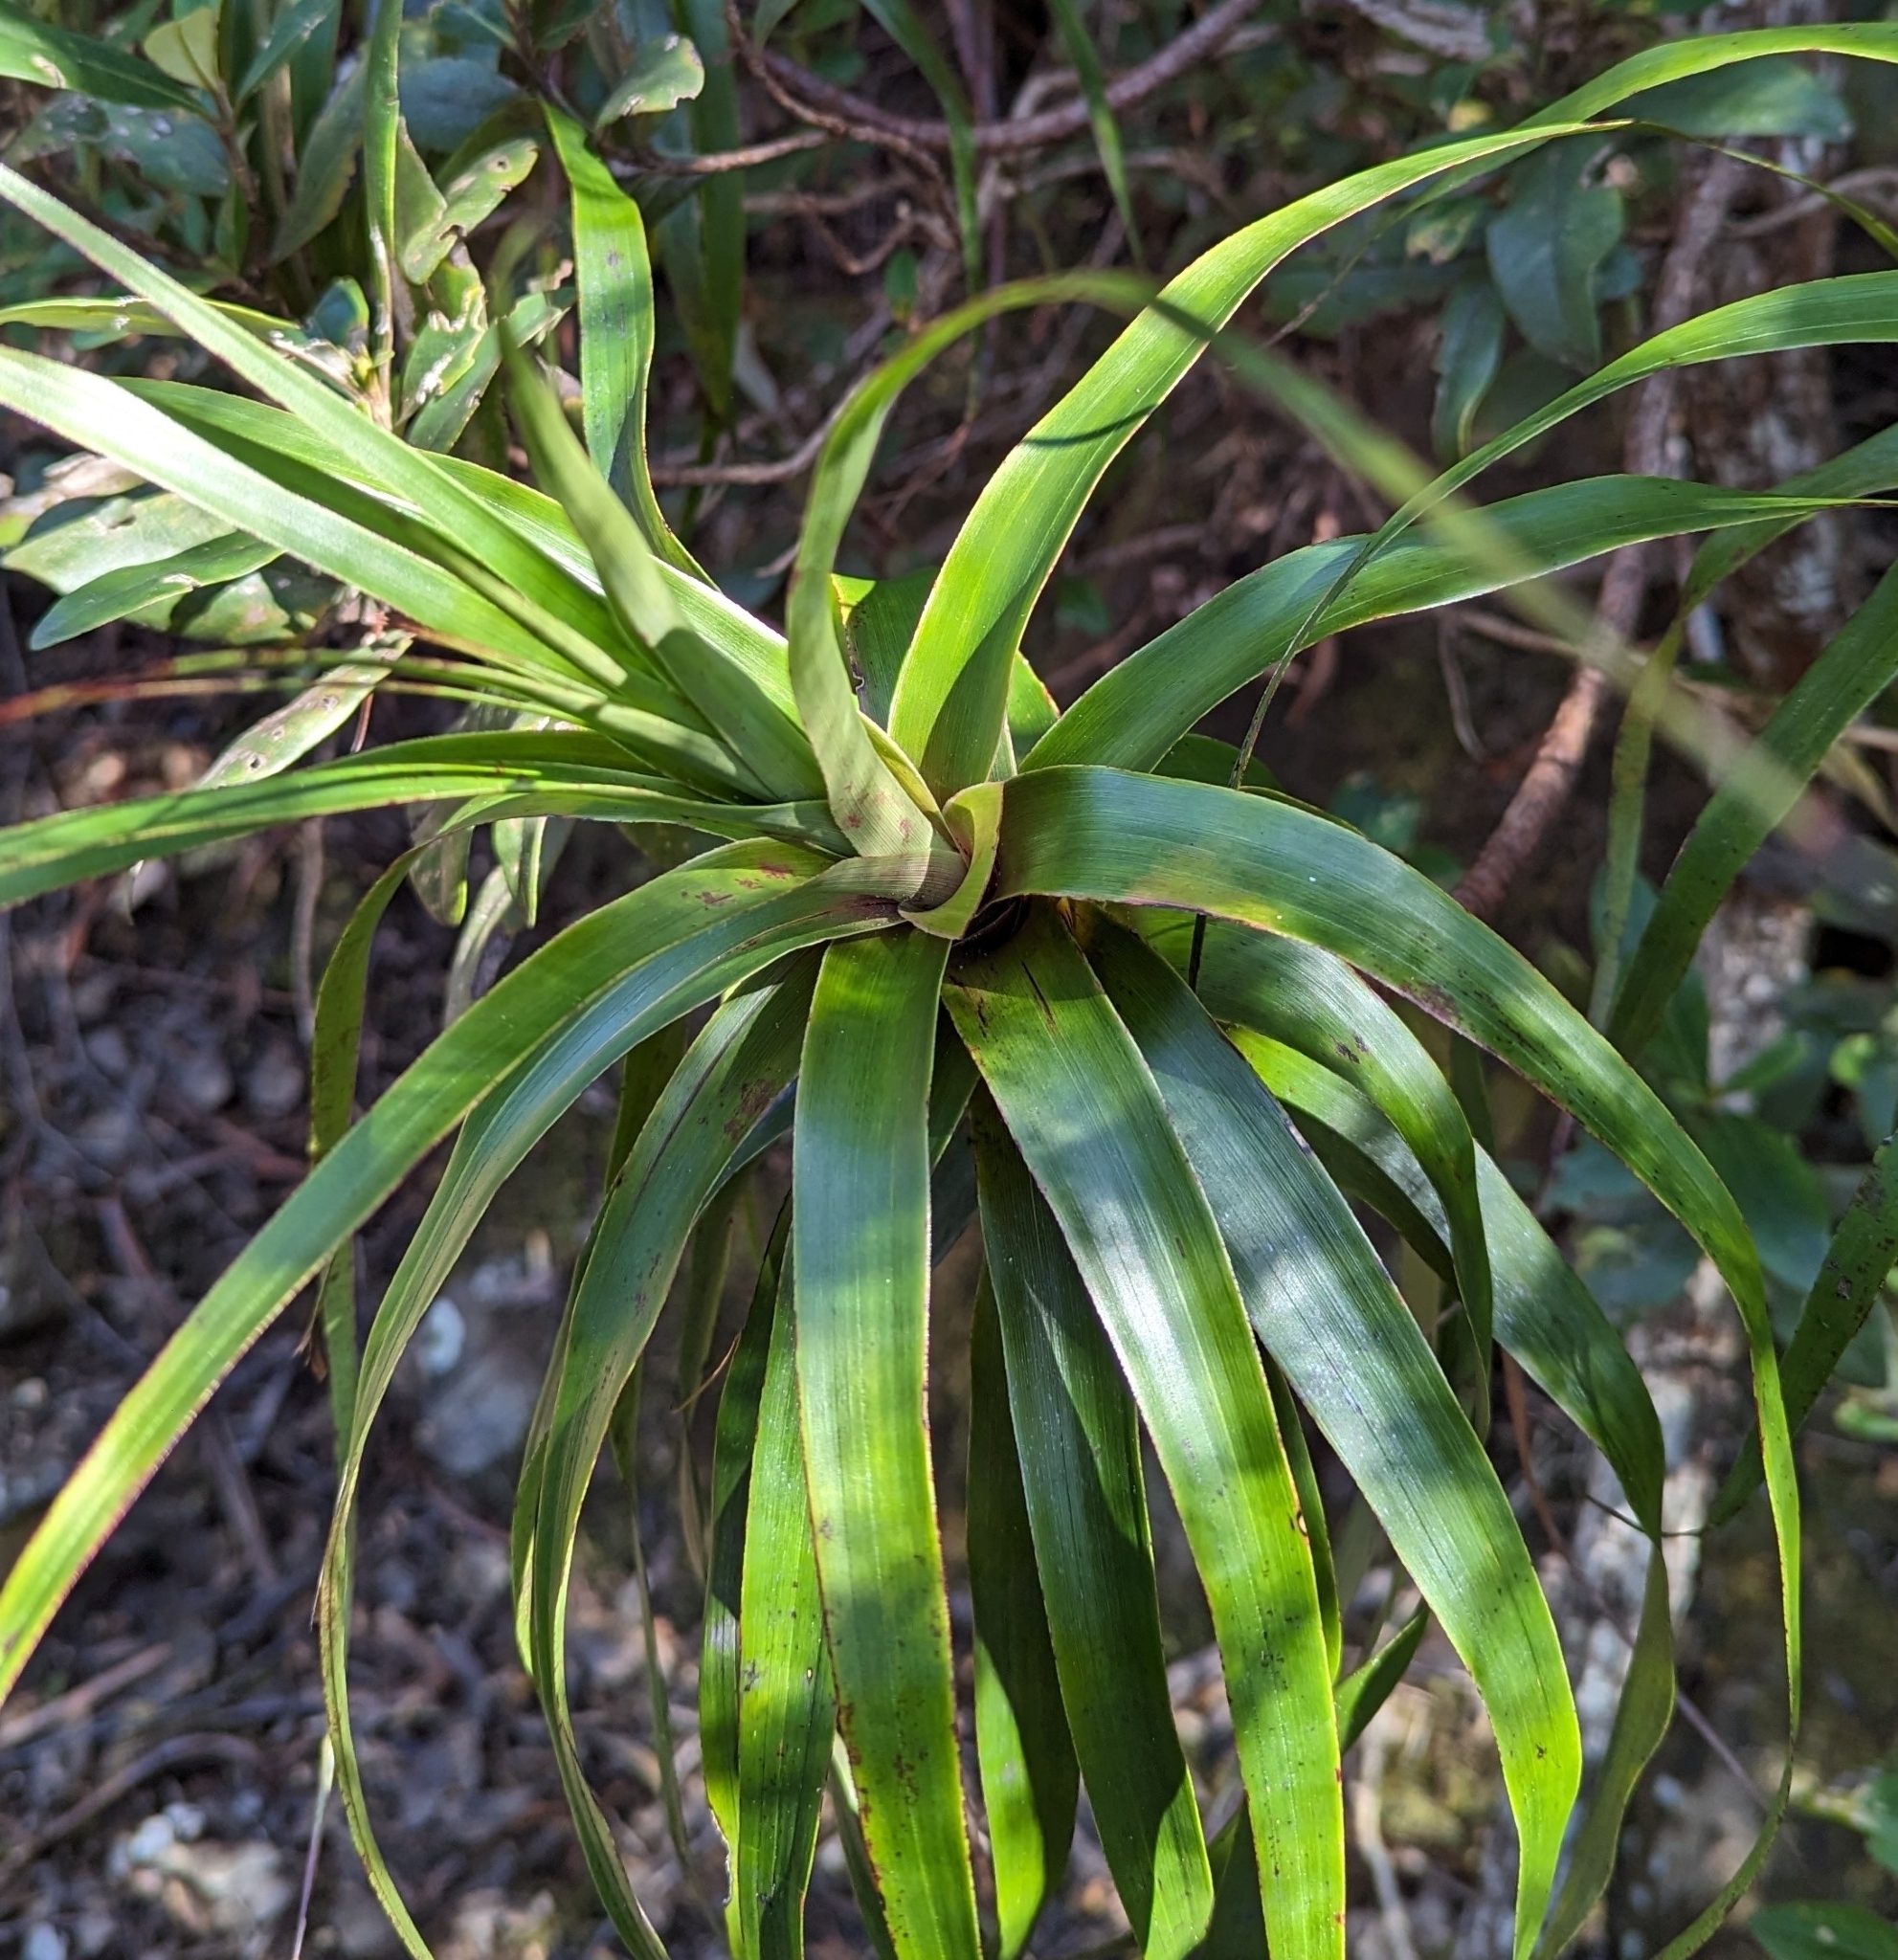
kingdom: Plantae
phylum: Tracheophyta
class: Magnoliopsida
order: Ericales
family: Ericaceae
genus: Dracophyllum
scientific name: Dracophyllum desgrazii
